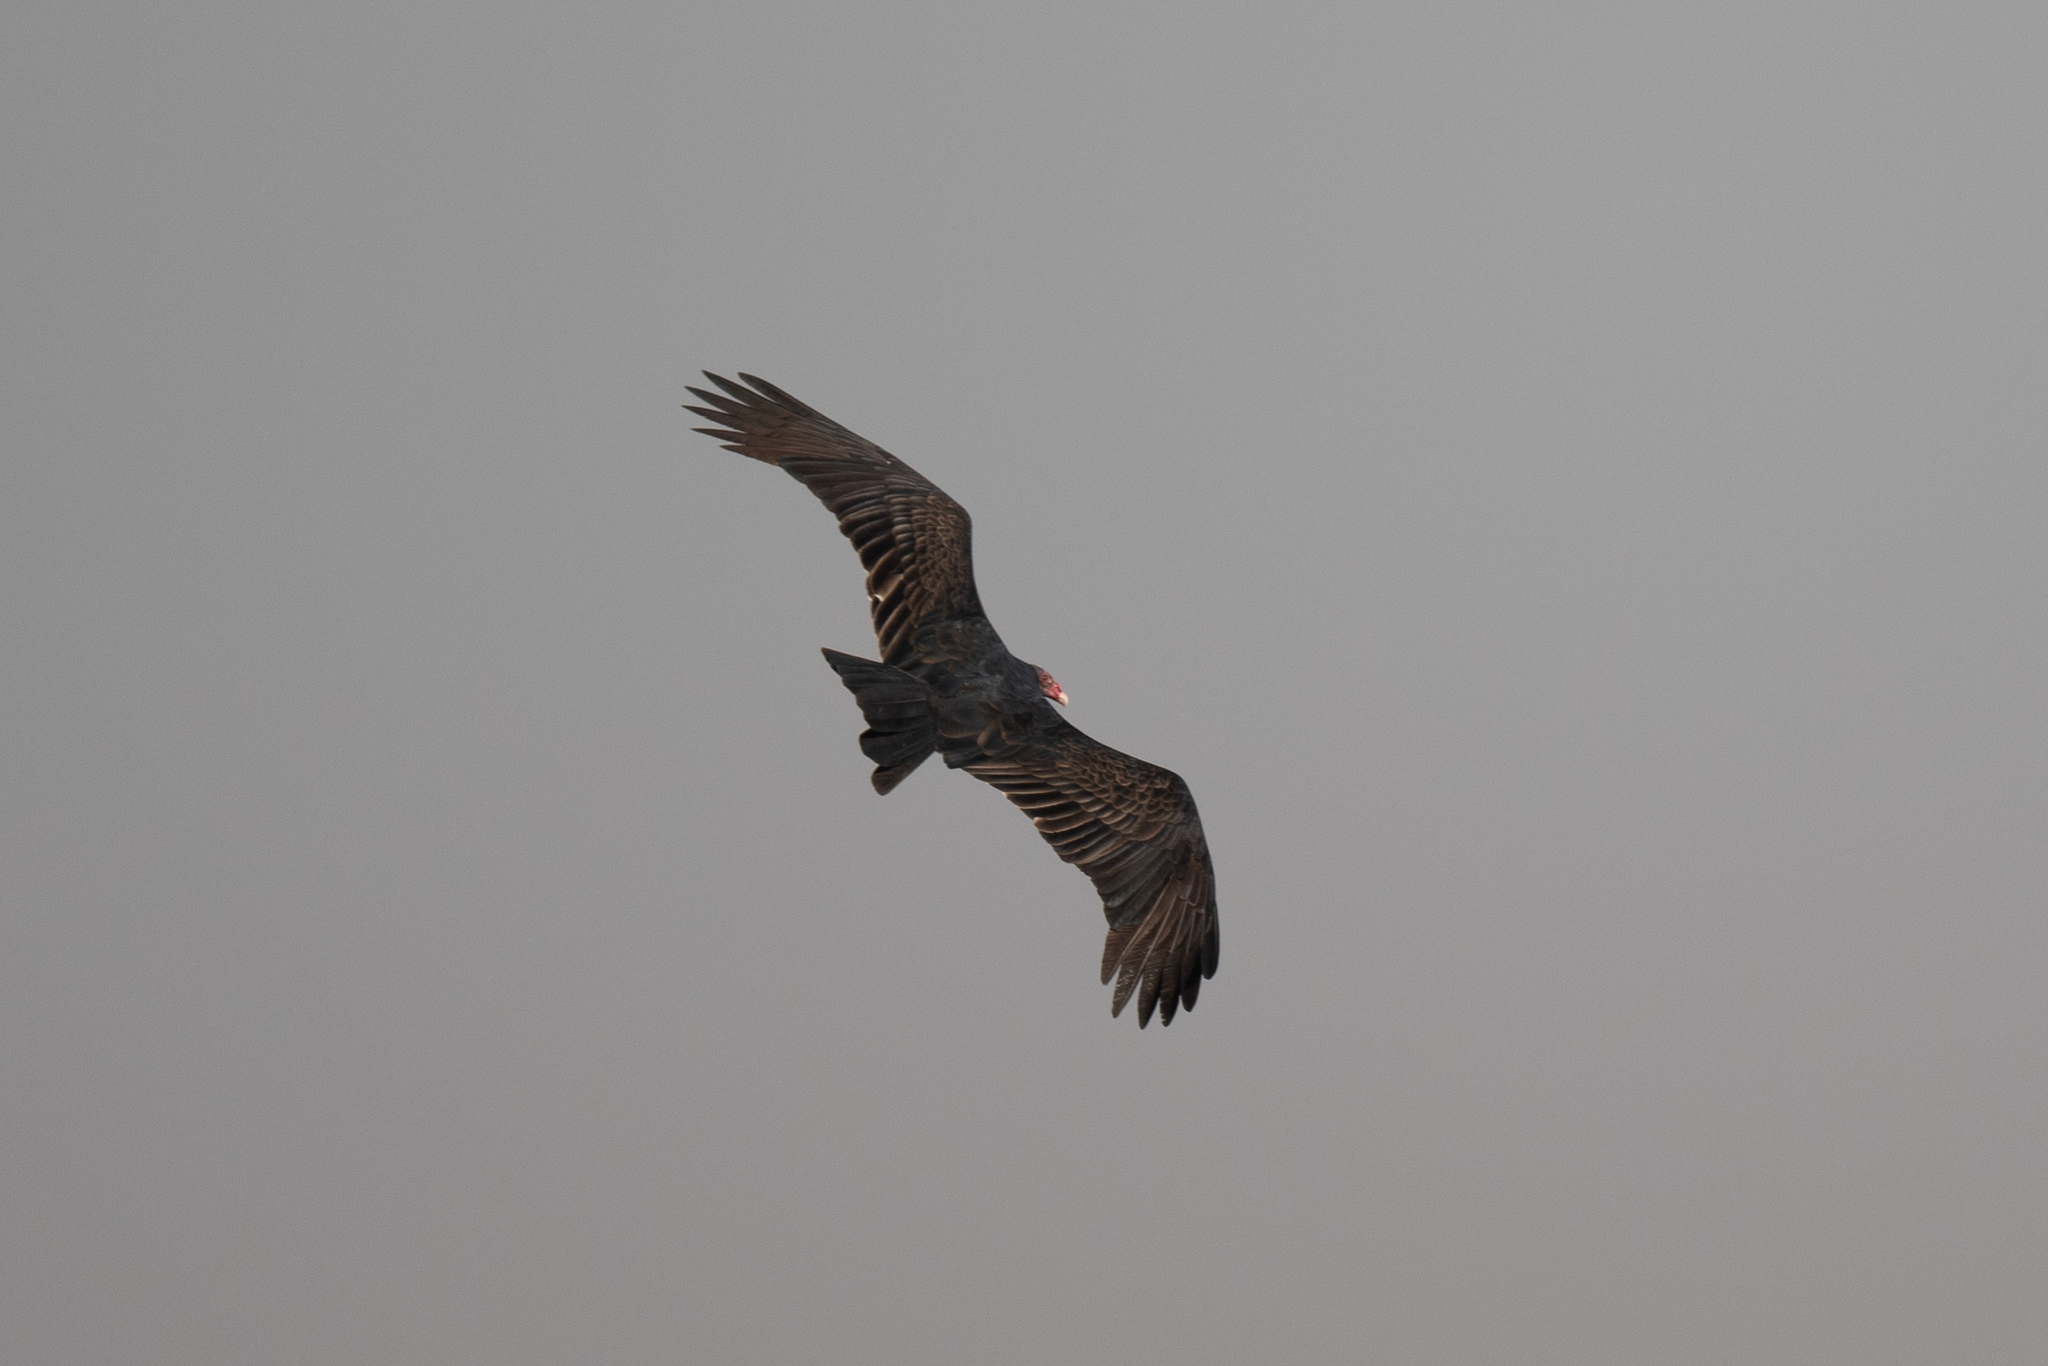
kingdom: Animalia
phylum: Chordata
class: Aves
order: Accipitriformes
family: Cathartidae
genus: Cathartes
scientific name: Cathartes aura
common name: Turkey vulture
